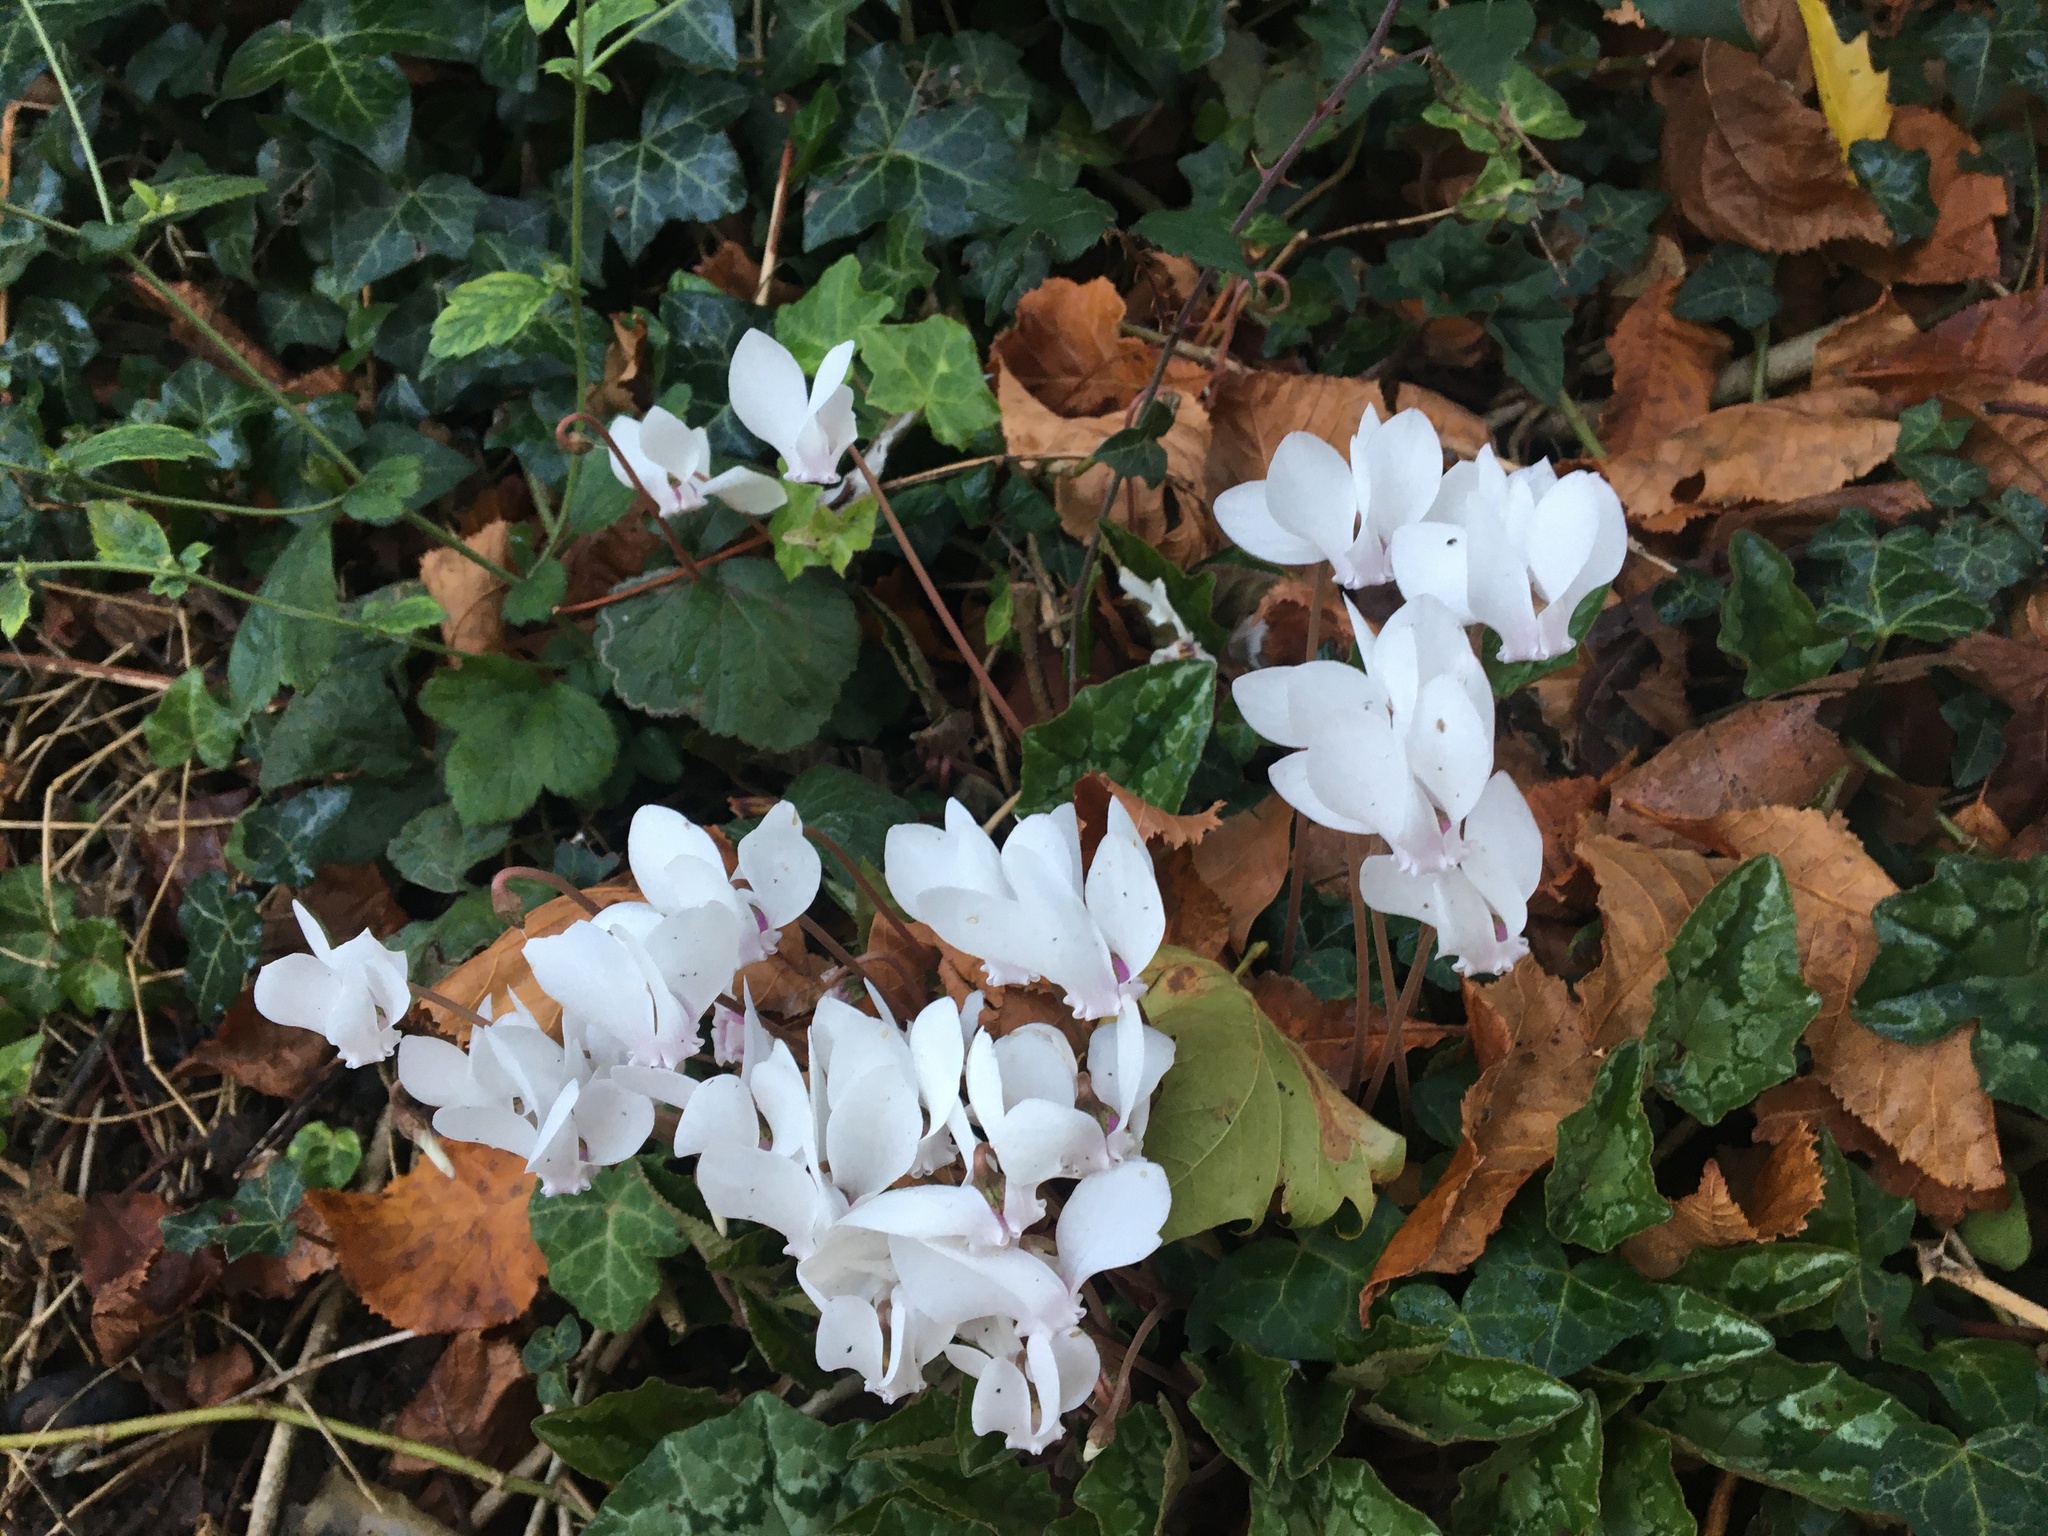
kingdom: Plantae
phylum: Tracheophyta
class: Magnoliopsida
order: Ericales
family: Primulaceae
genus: Cyclamen
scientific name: Cyclamen hederifolium
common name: Sowbread
